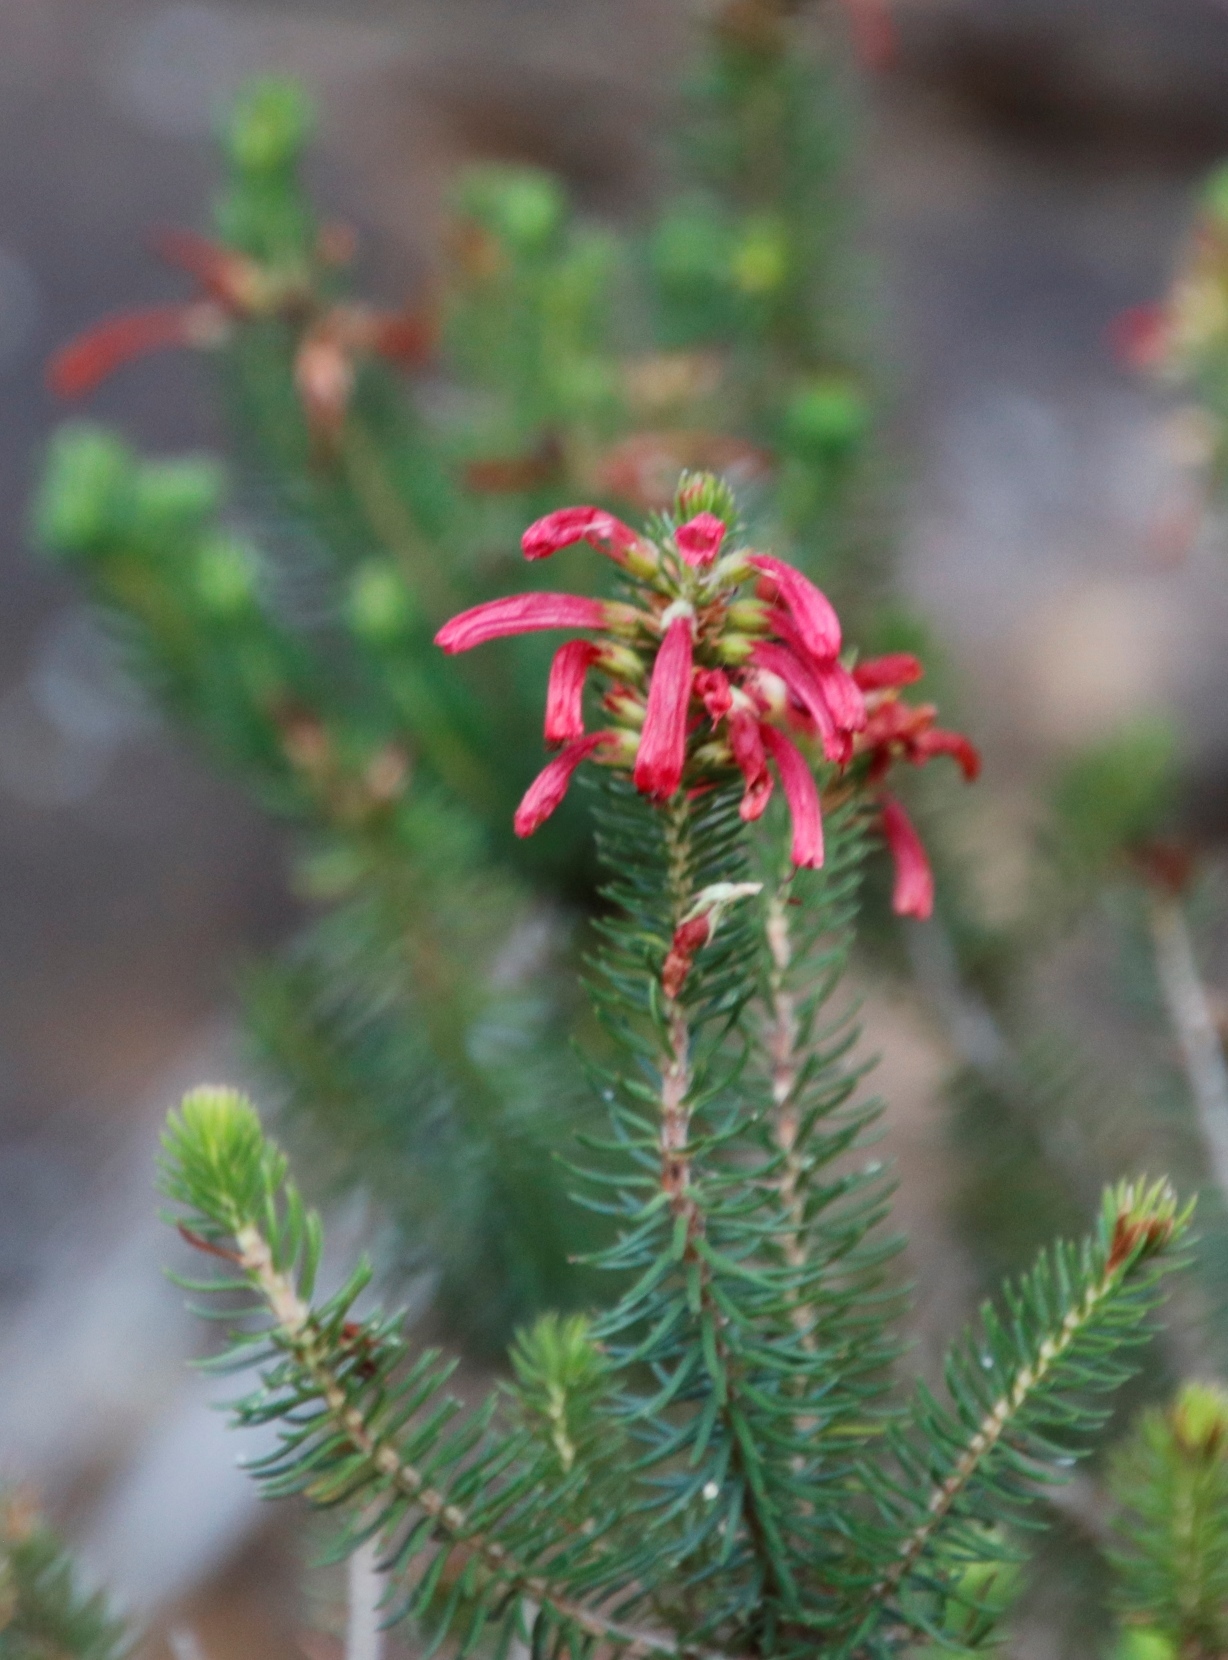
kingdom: Plantae
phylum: Tracheophyta
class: Magnoliopsida
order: Ericales
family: Ericaceae
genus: Erica
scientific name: Erica abietina
